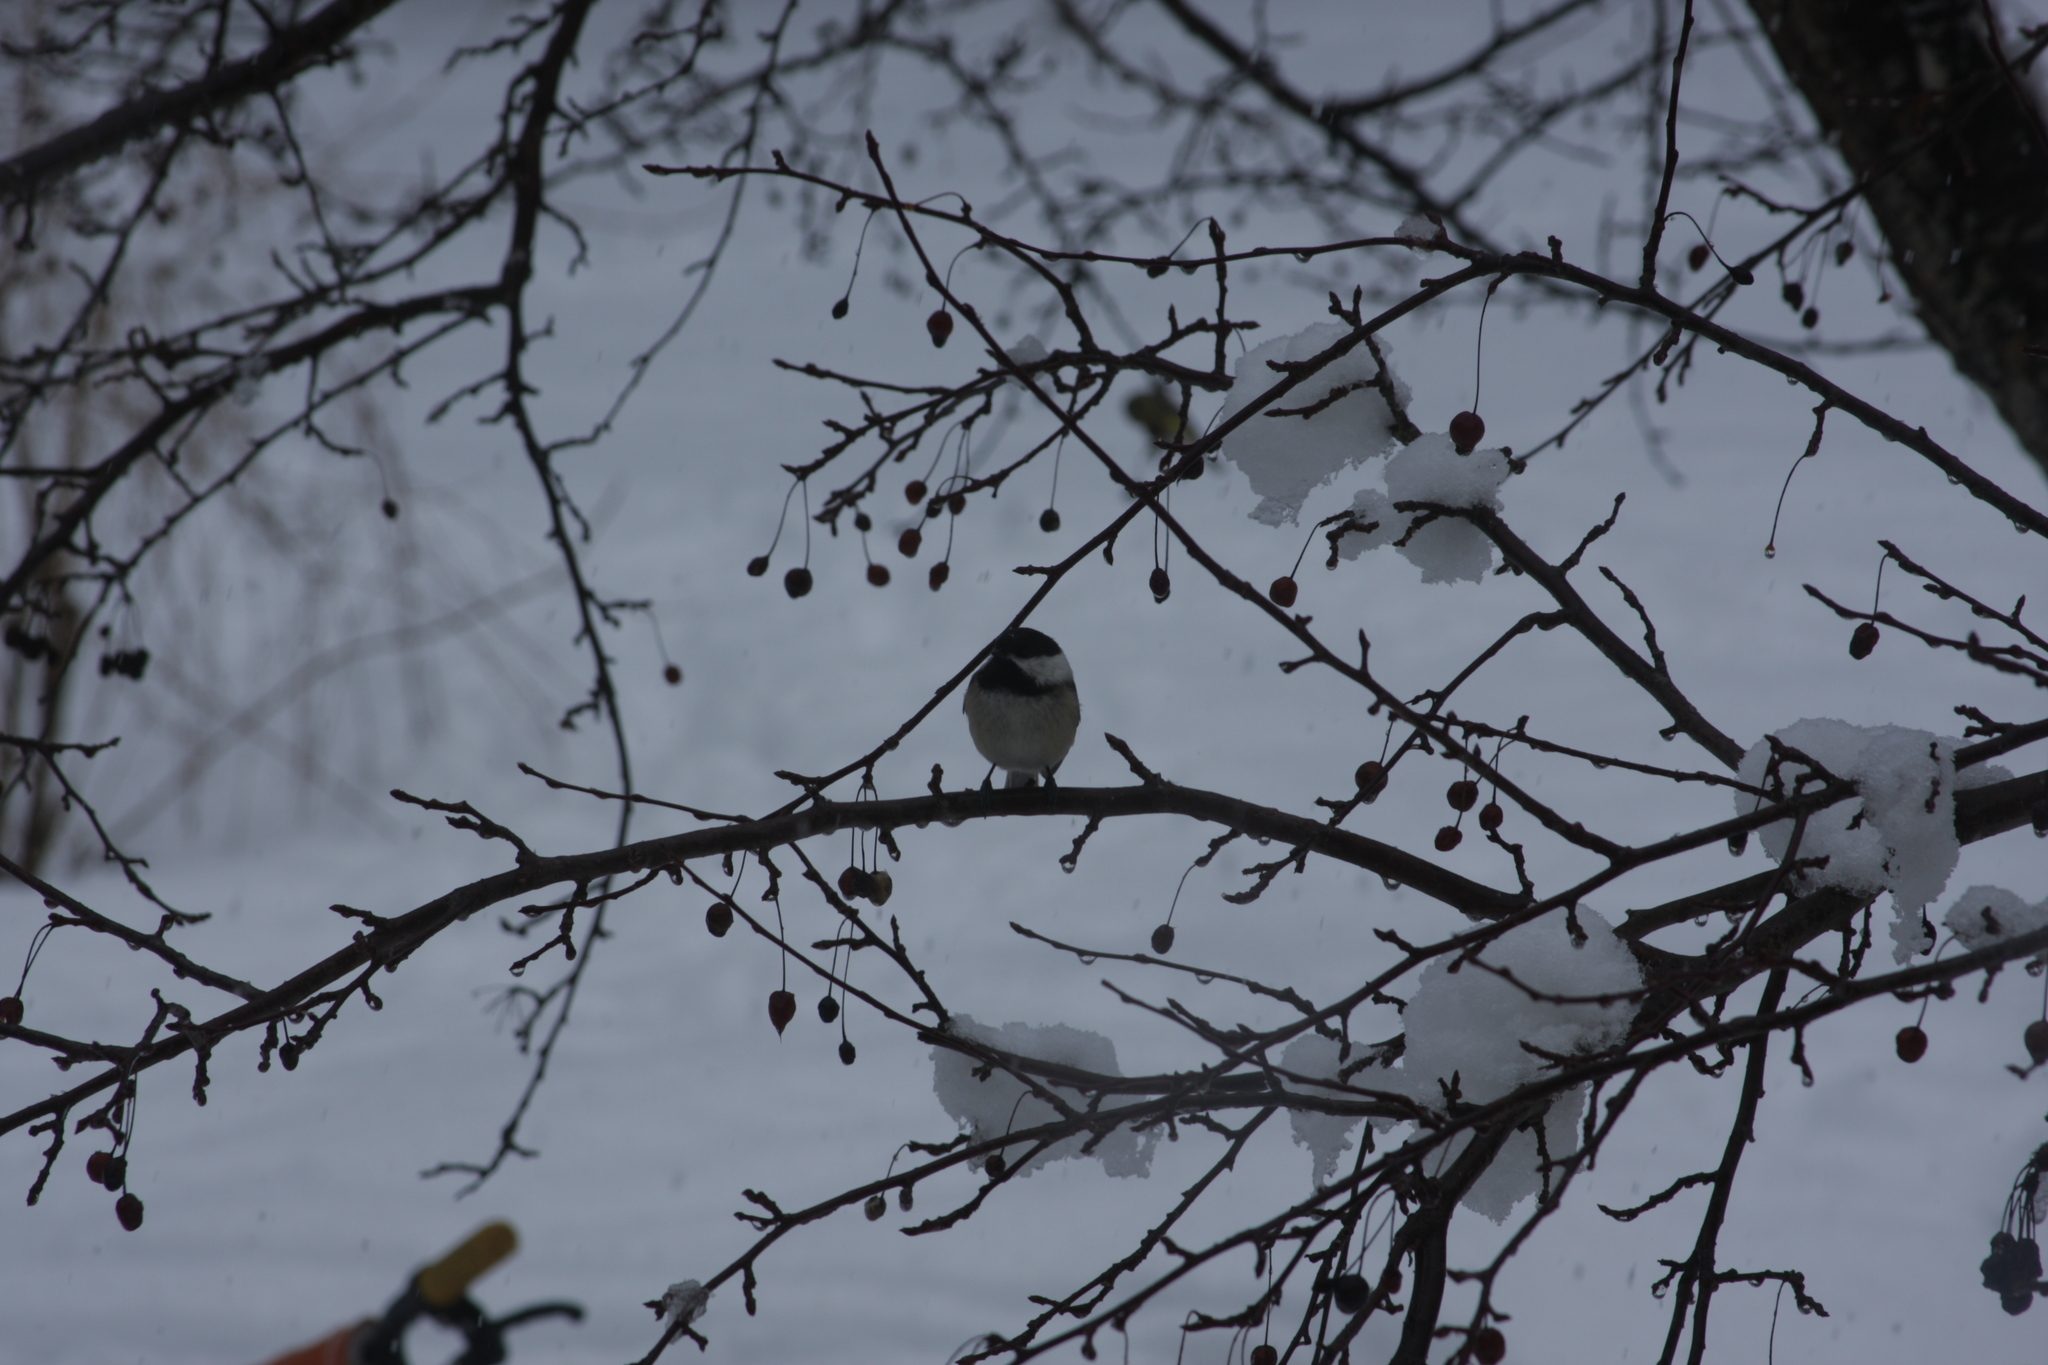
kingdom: Animalia
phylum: Chordata
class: Aves
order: Passeriformes
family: Paridae
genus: Poecile
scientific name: Poecile atricapillus
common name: Black-capped chickadee
